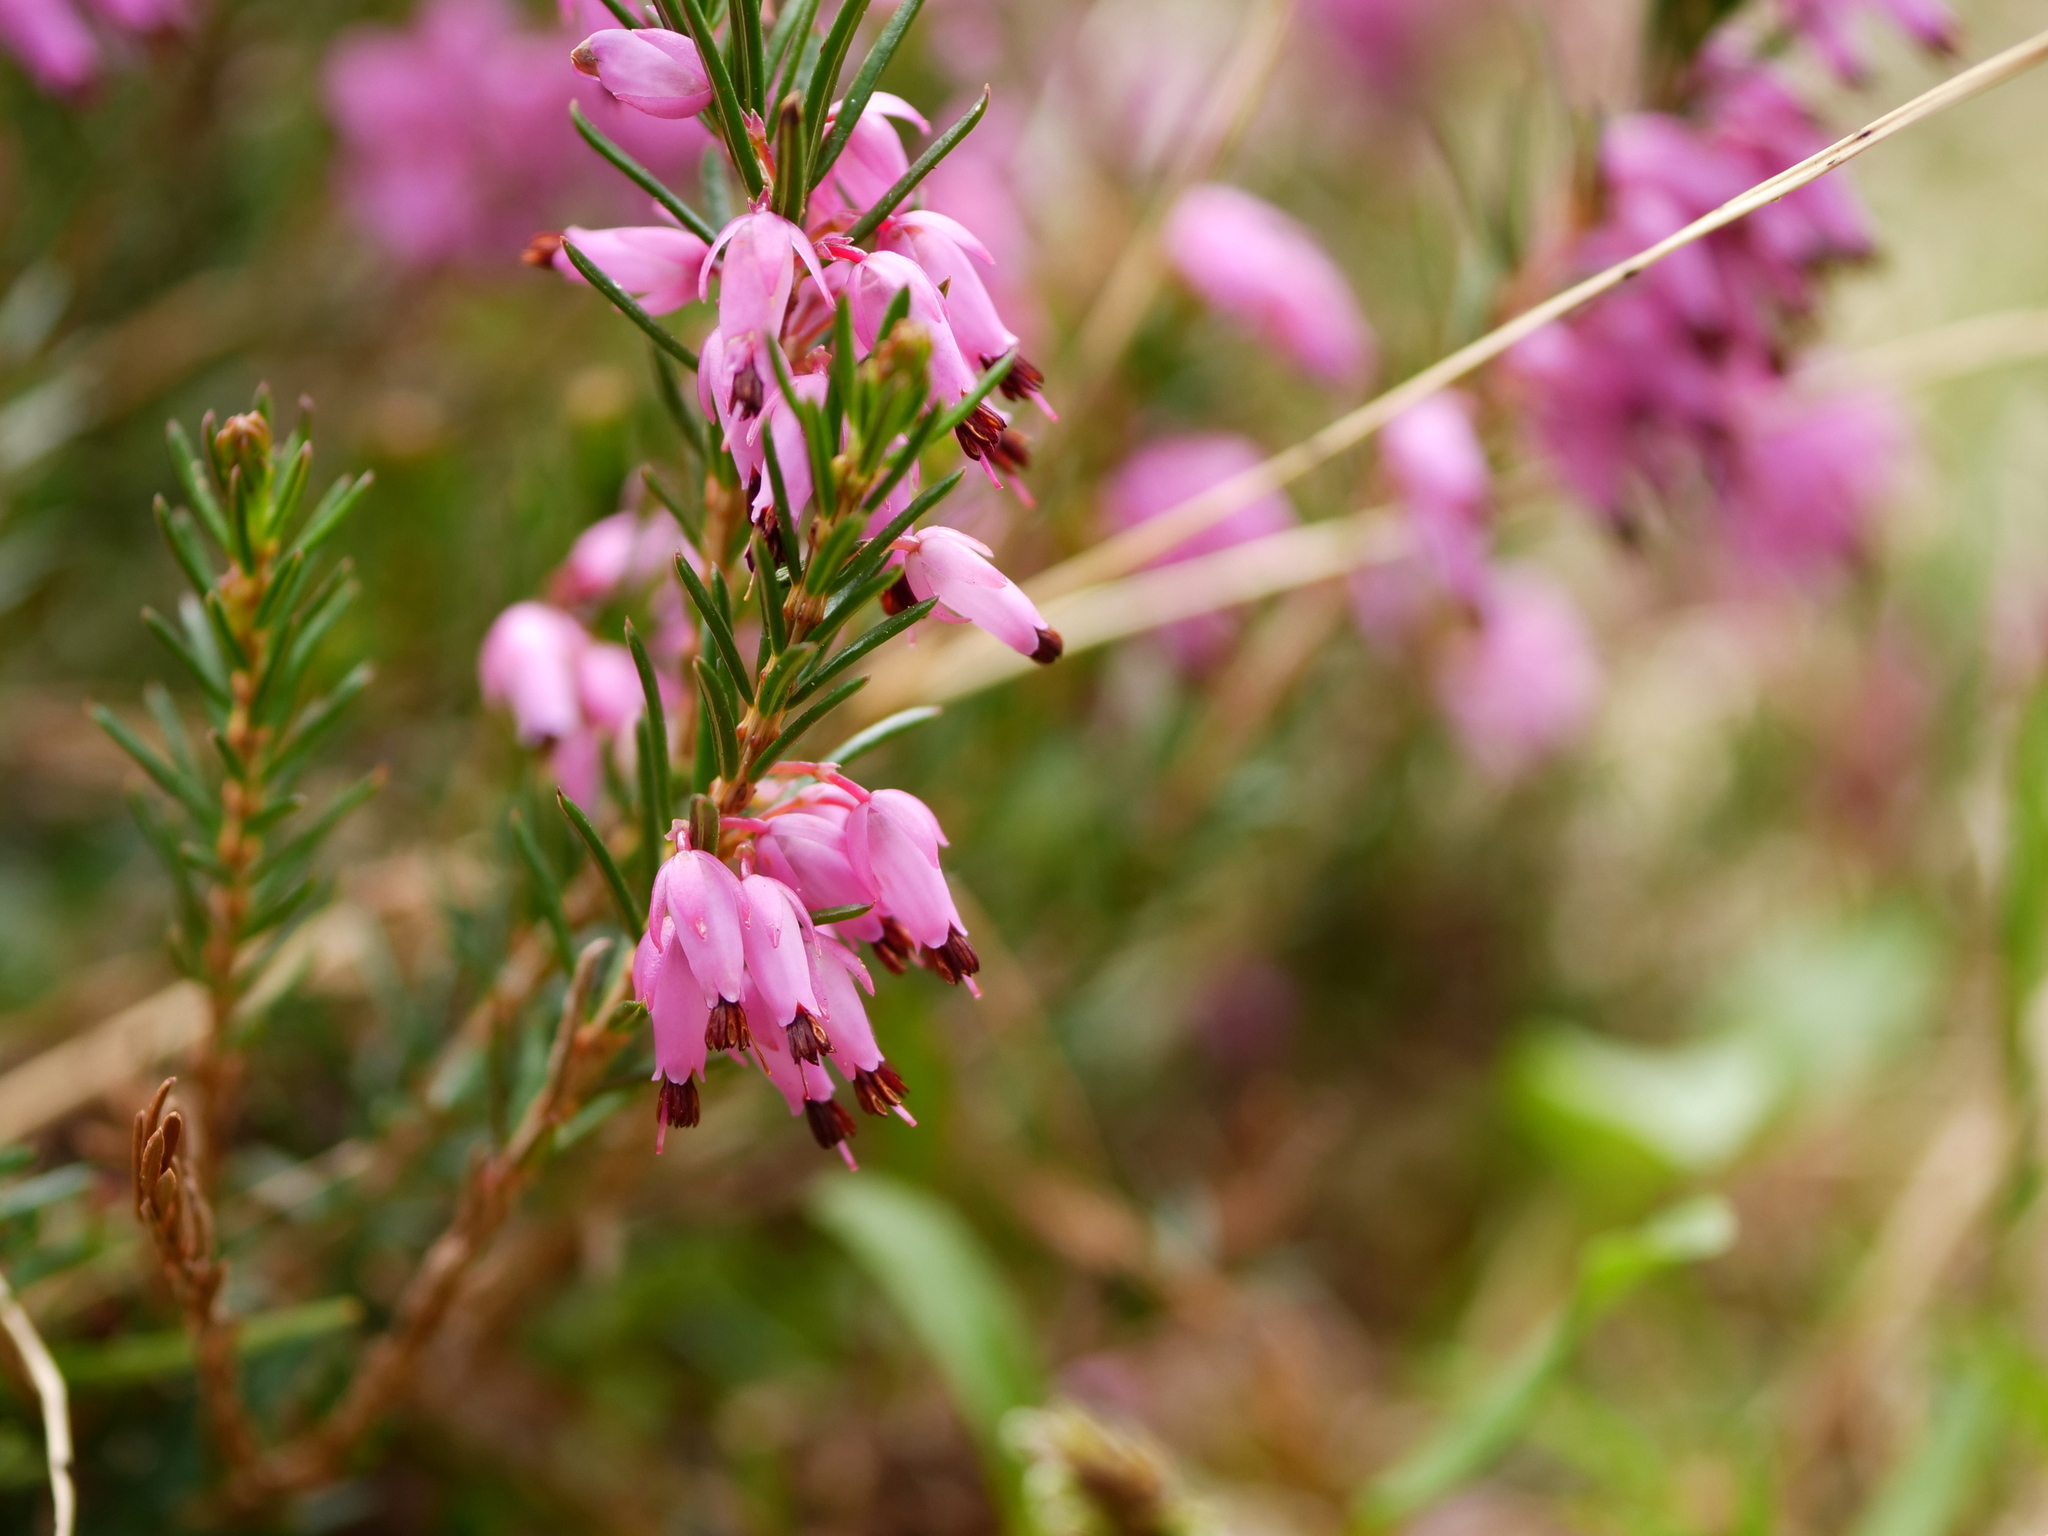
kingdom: Plantae
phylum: Tracheophyta
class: Magnoliopsida
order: Ericales
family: Ericaceae
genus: Erica
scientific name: Erica carnea
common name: Winter heath
